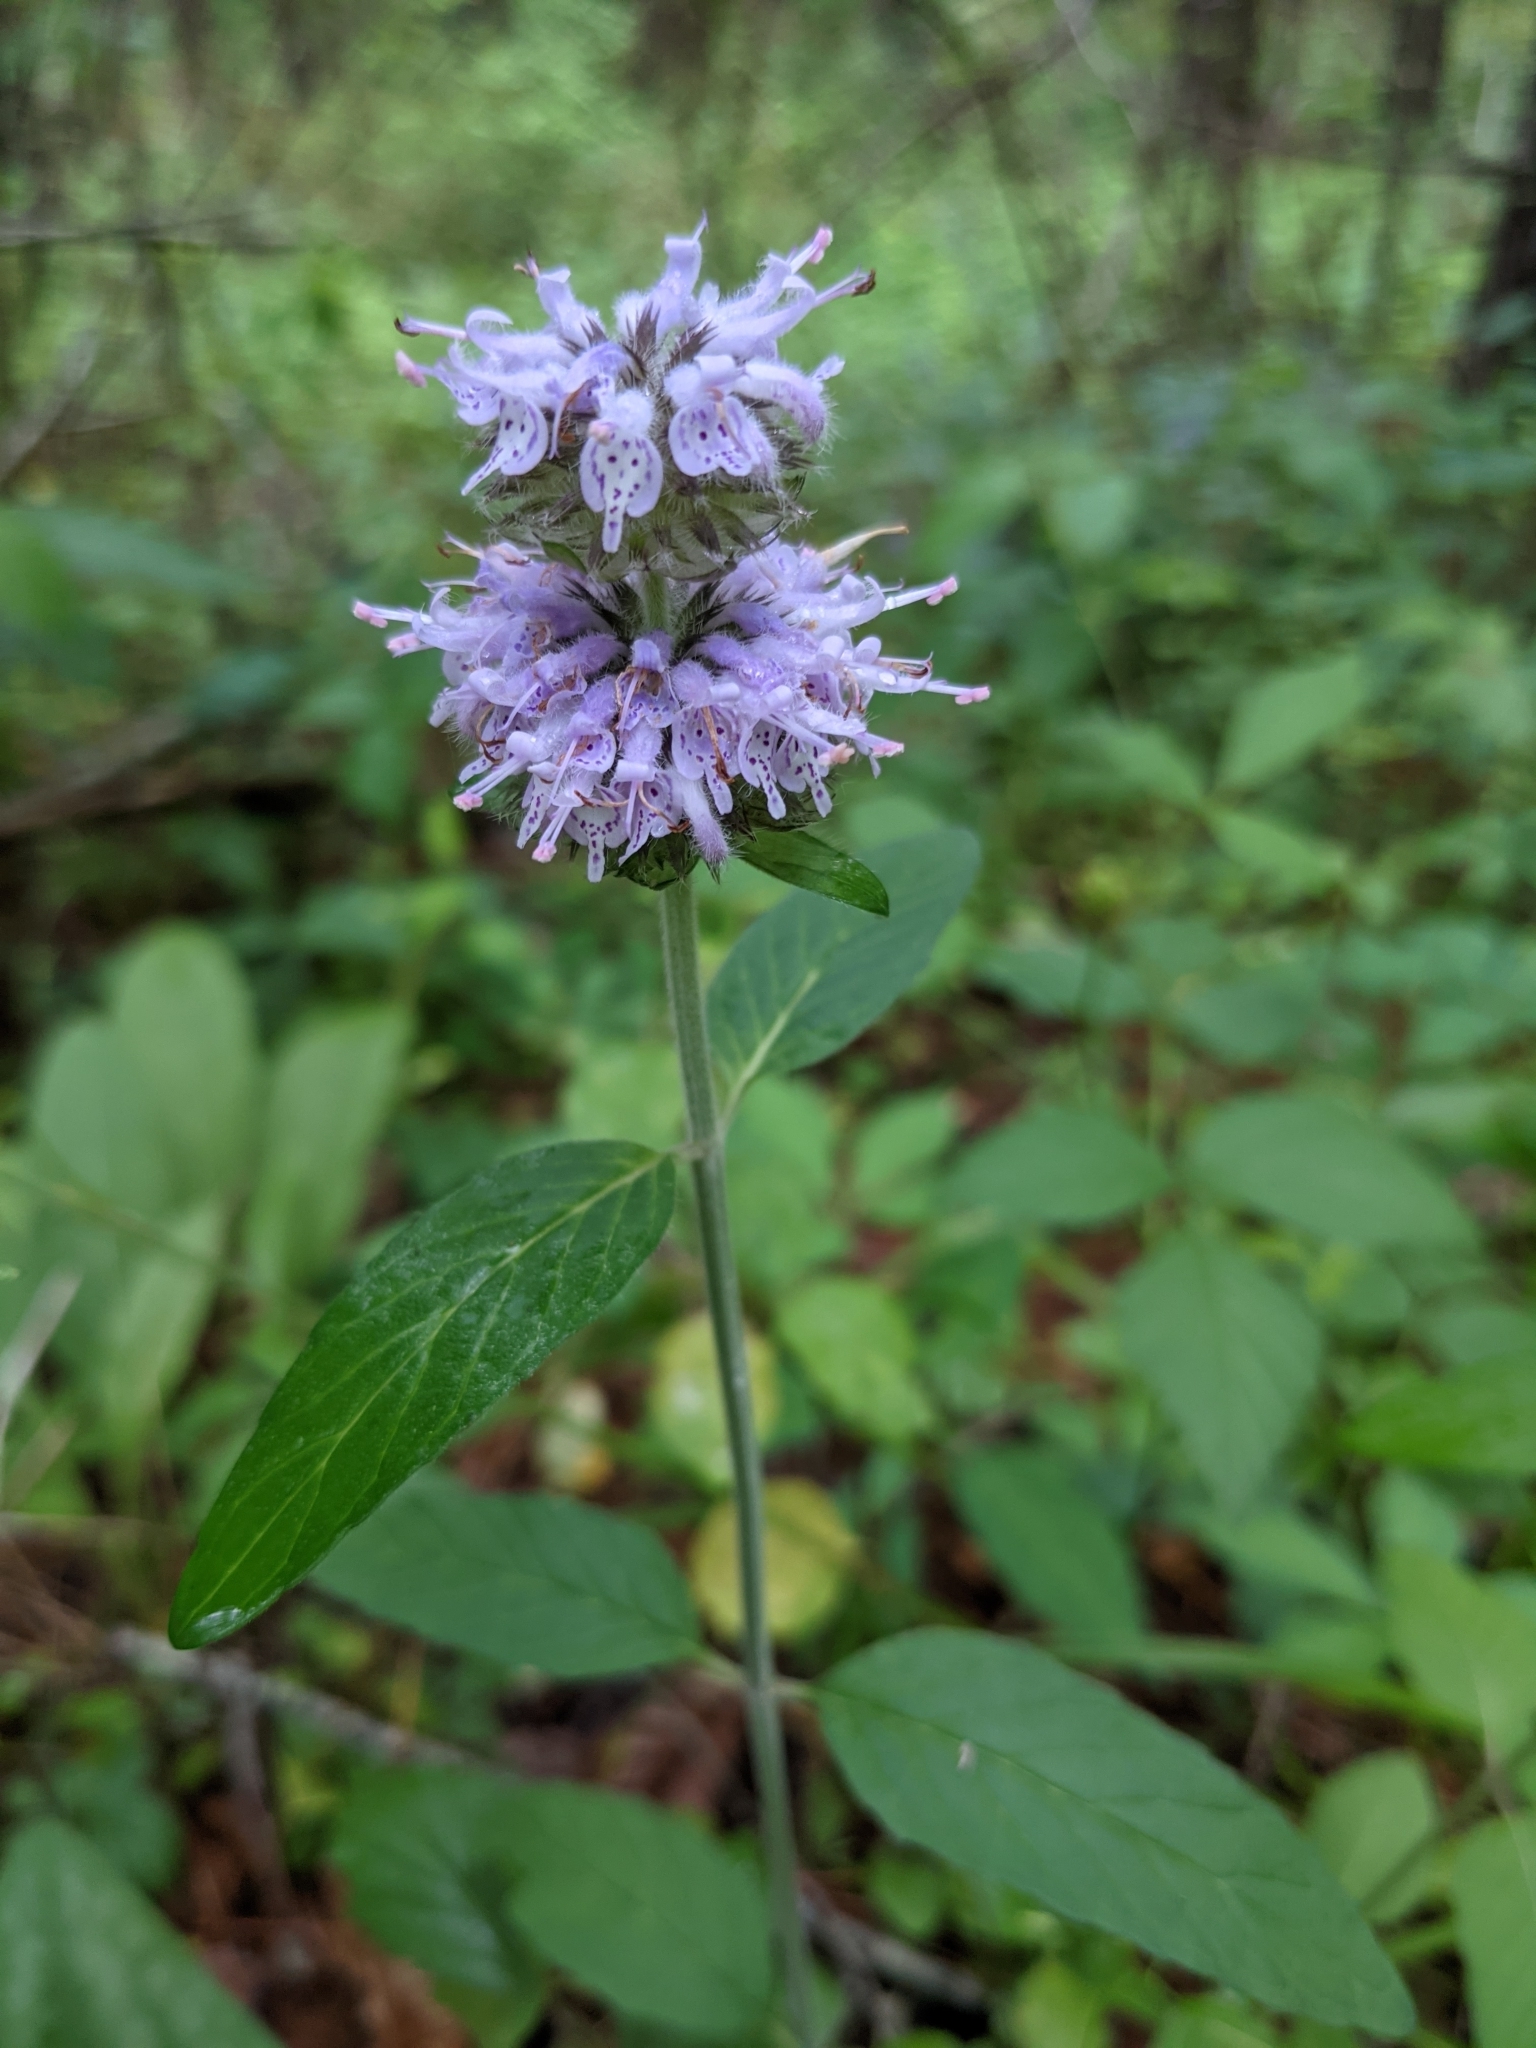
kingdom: Plantae
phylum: Tracheophyta
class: Magnoliopsida
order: Lamiales
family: Lamiaceae
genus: Blephilia
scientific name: Blephilia ciliata
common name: Downy blephilia
